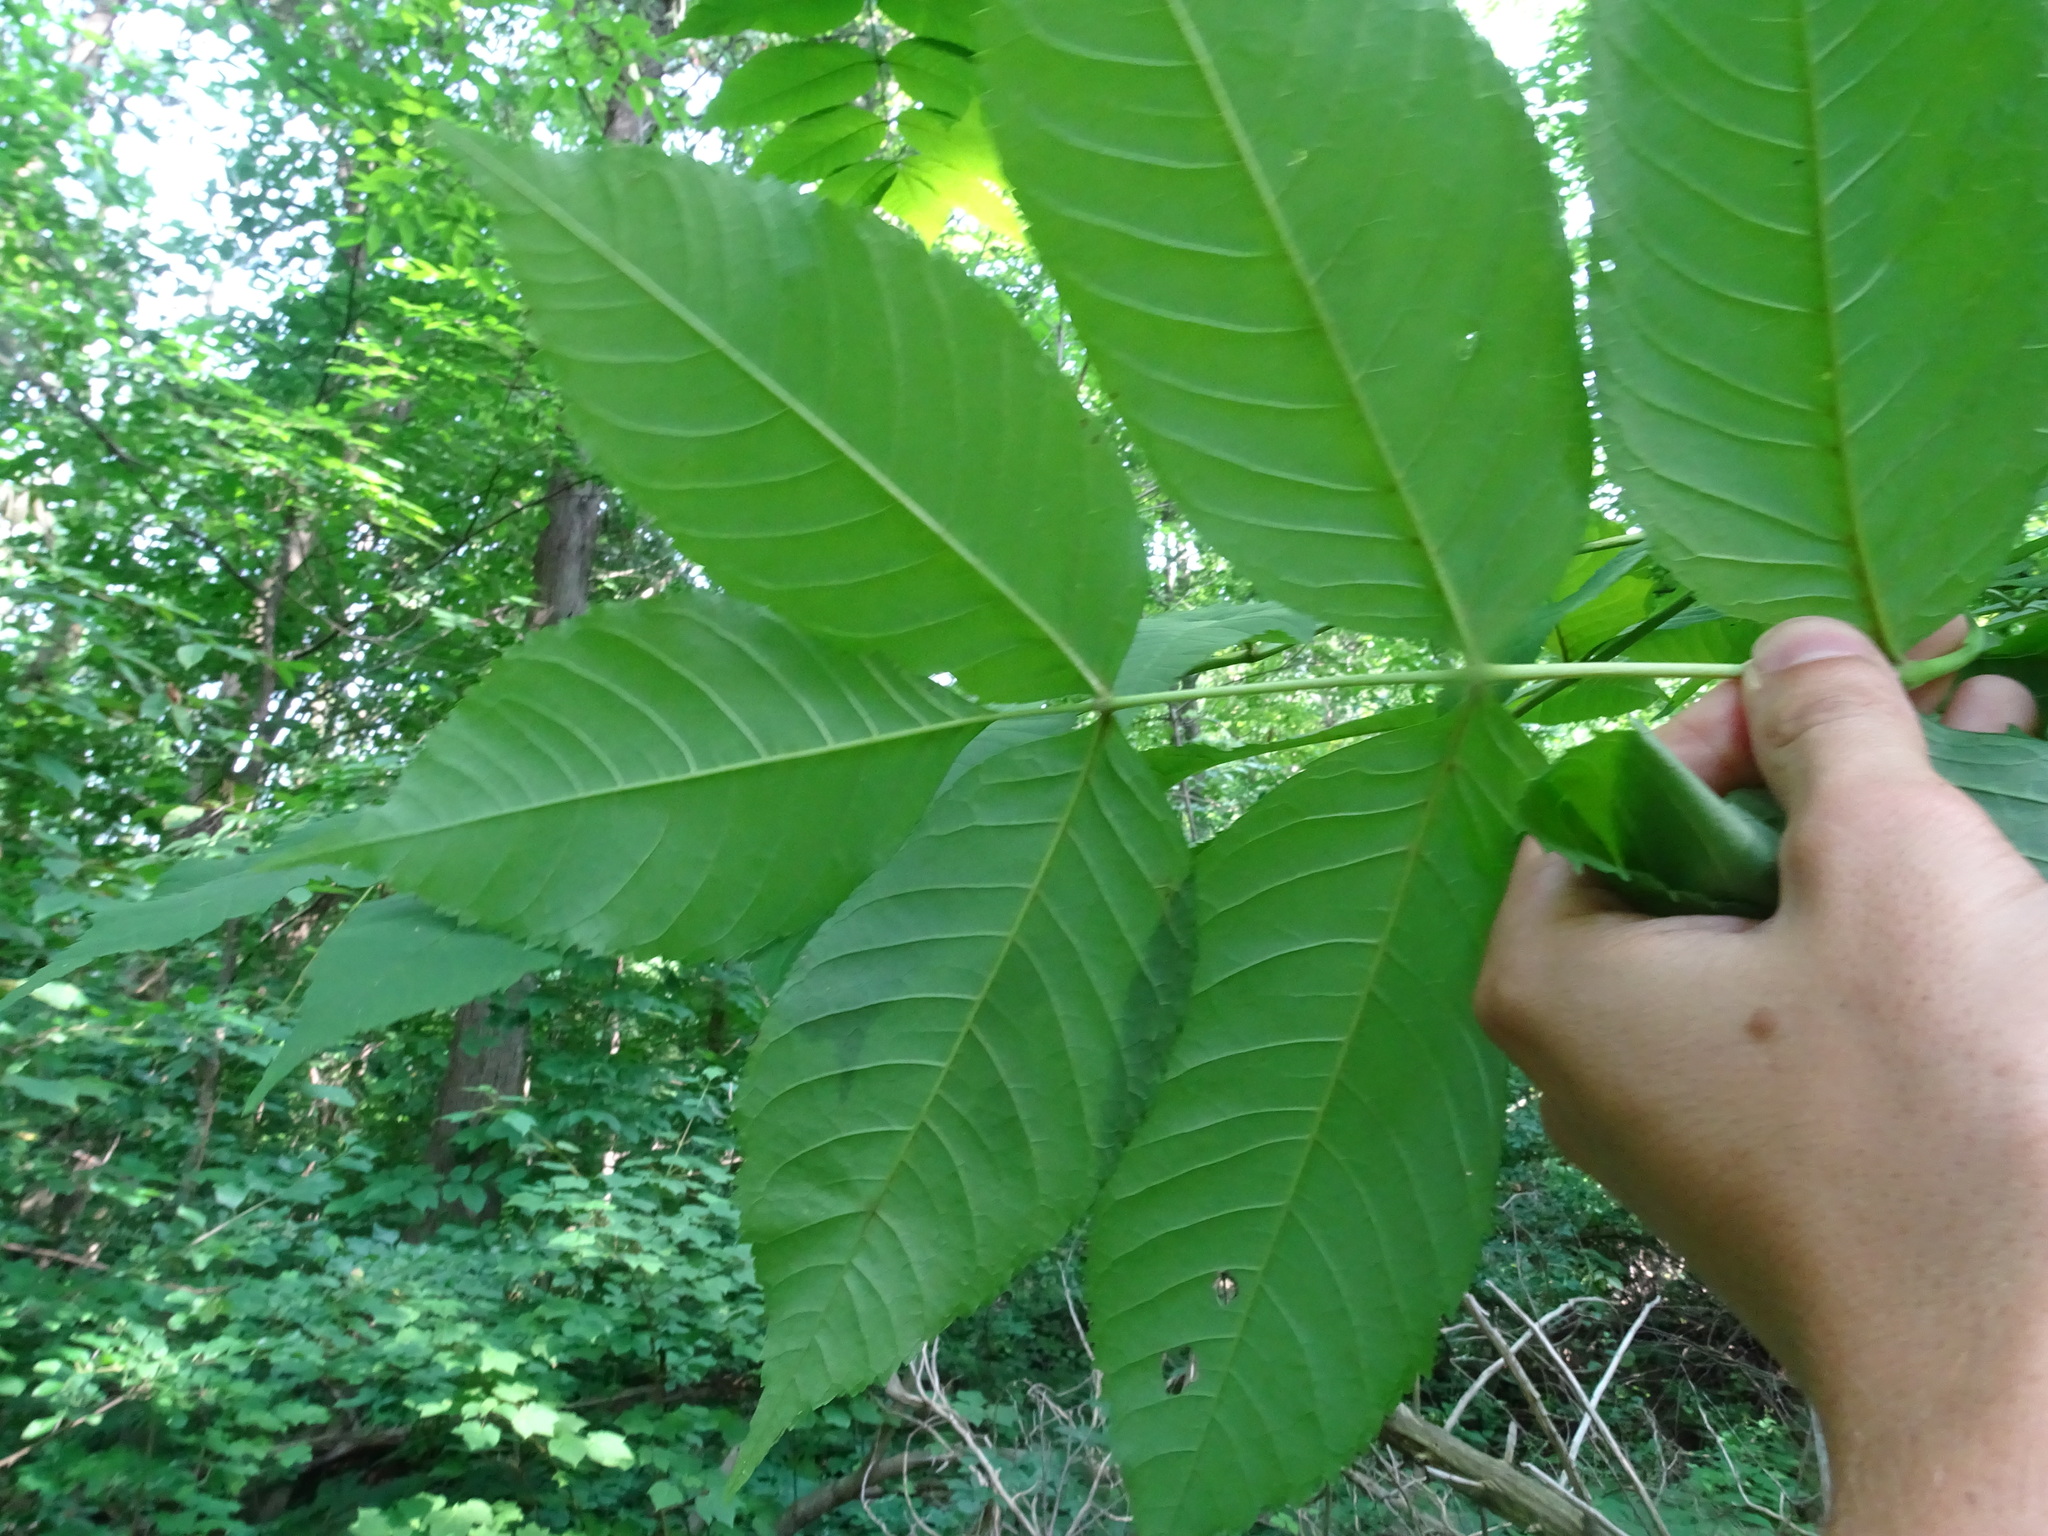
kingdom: Plantae
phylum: Tracheophyta
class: Magnoliopsida
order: Lamiales
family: Oleaceae
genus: Fraxinus
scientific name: Fraxinus nigra
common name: Black ash
